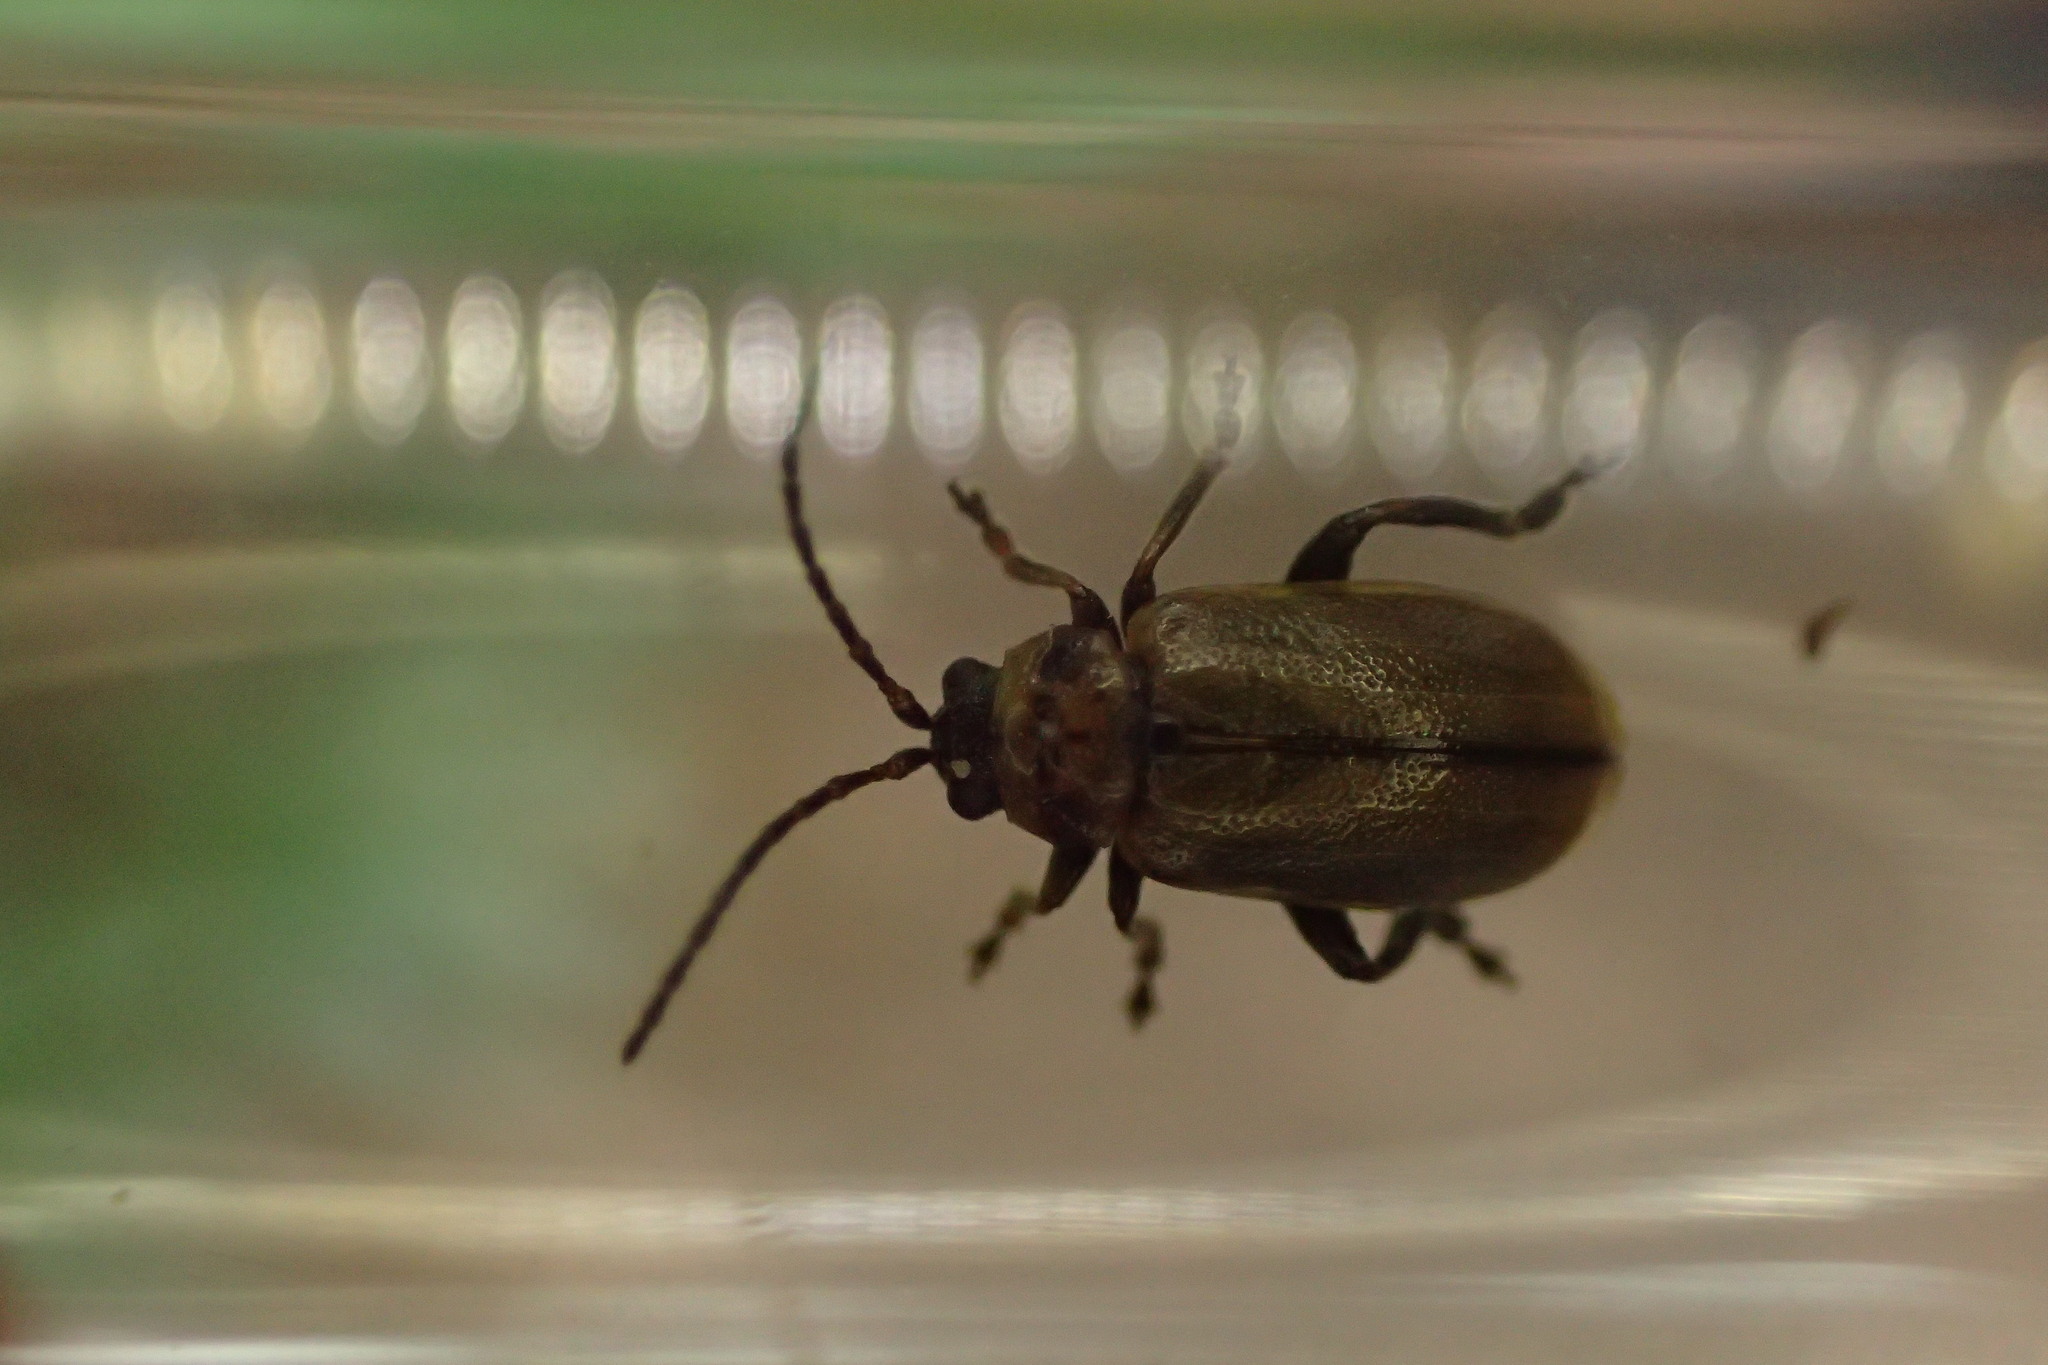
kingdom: Animalia
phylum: Arthropoda
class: Insecta
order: Coleoptera
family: Chrysomelidae
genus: Lochmaea
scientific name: Lochmaea suturalis
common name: Heather beetle
